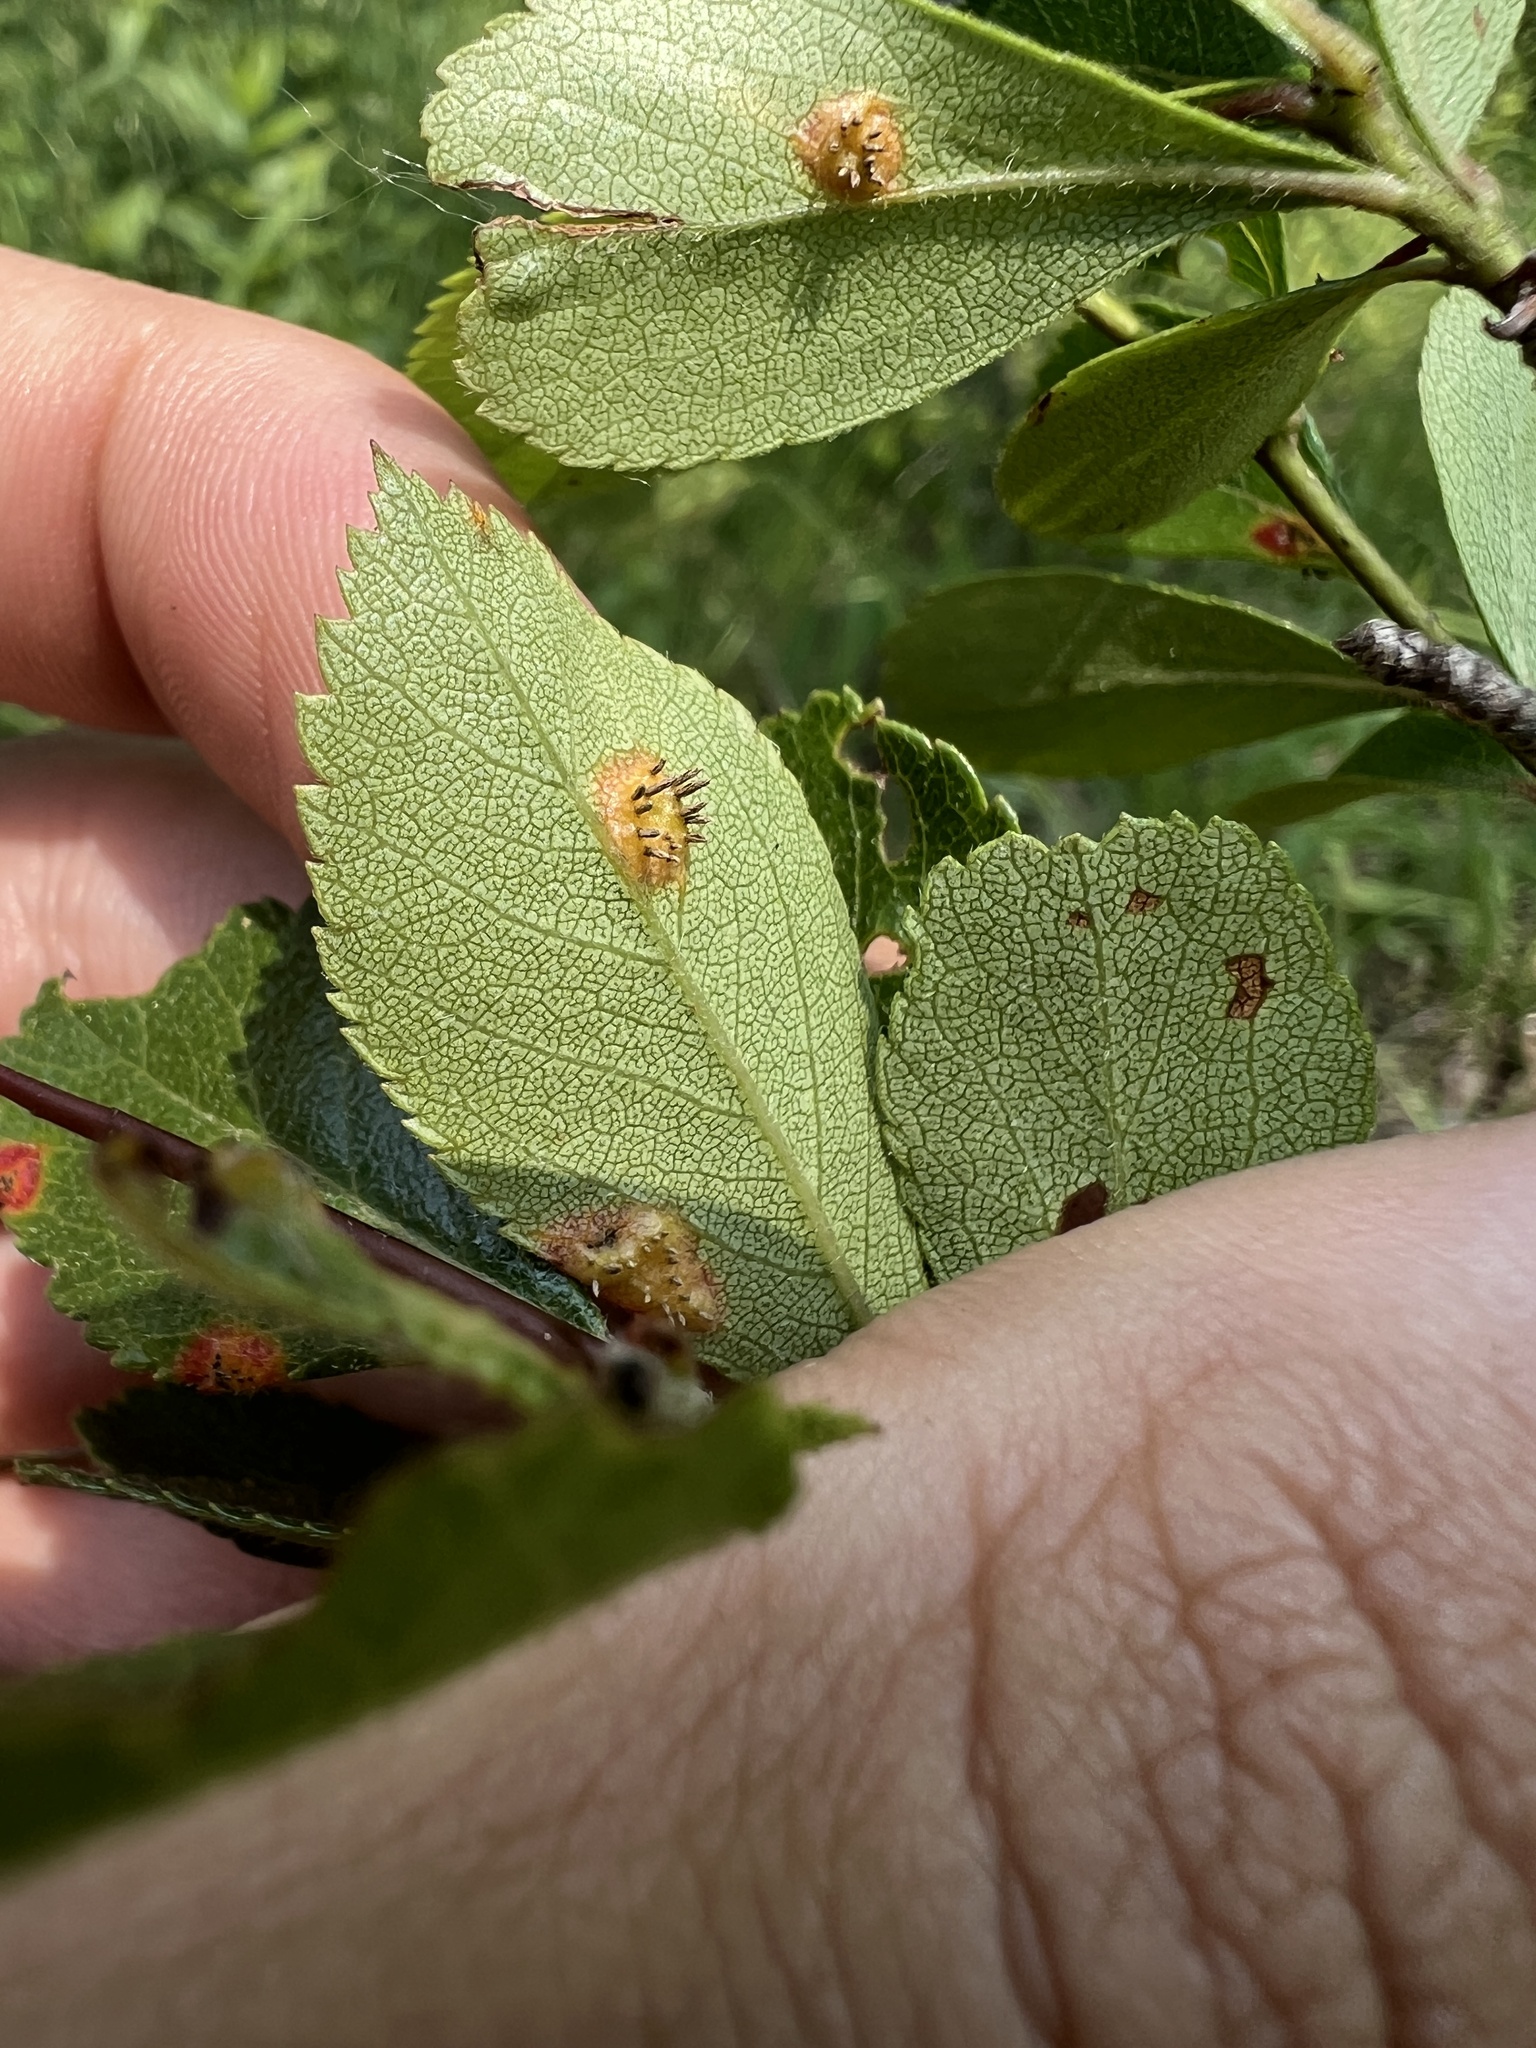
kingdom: Fungi
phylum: Basidiomycota
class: Pucciniomycetes
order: Pucciniales
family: Gymnosporangiaceae
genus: Gymnosporangium
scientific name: Gymnosporangium globosum
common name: Juniper-hawthorn rust
